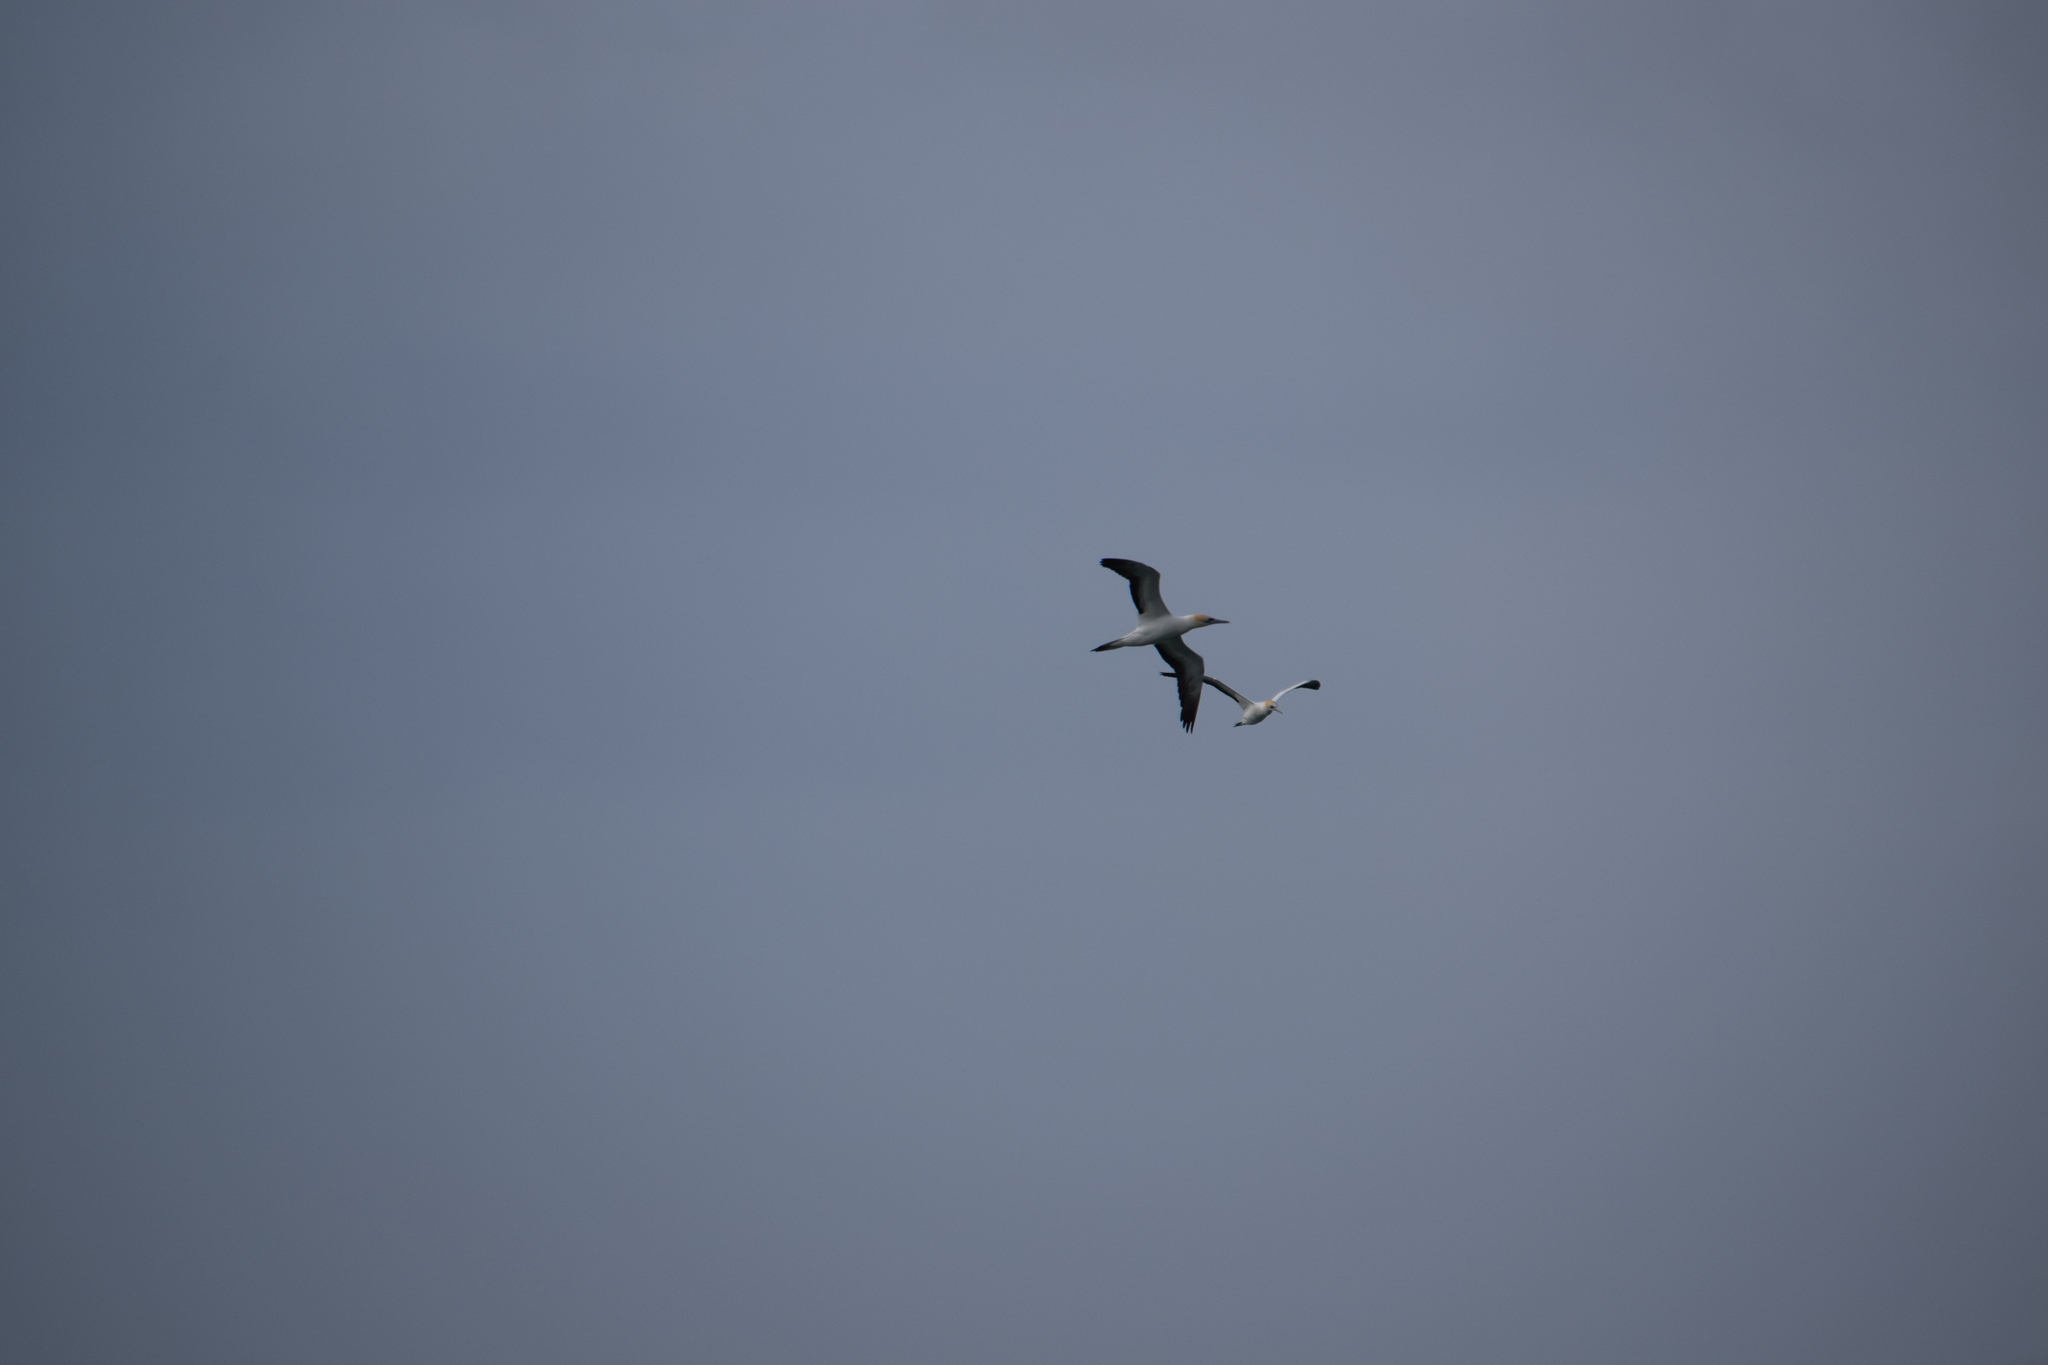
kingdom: Animalia
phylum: Chordata
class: Aves
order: Suliformes
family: Sulidae
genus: Morus
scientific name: Morus serrator
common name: Australasian gannet
